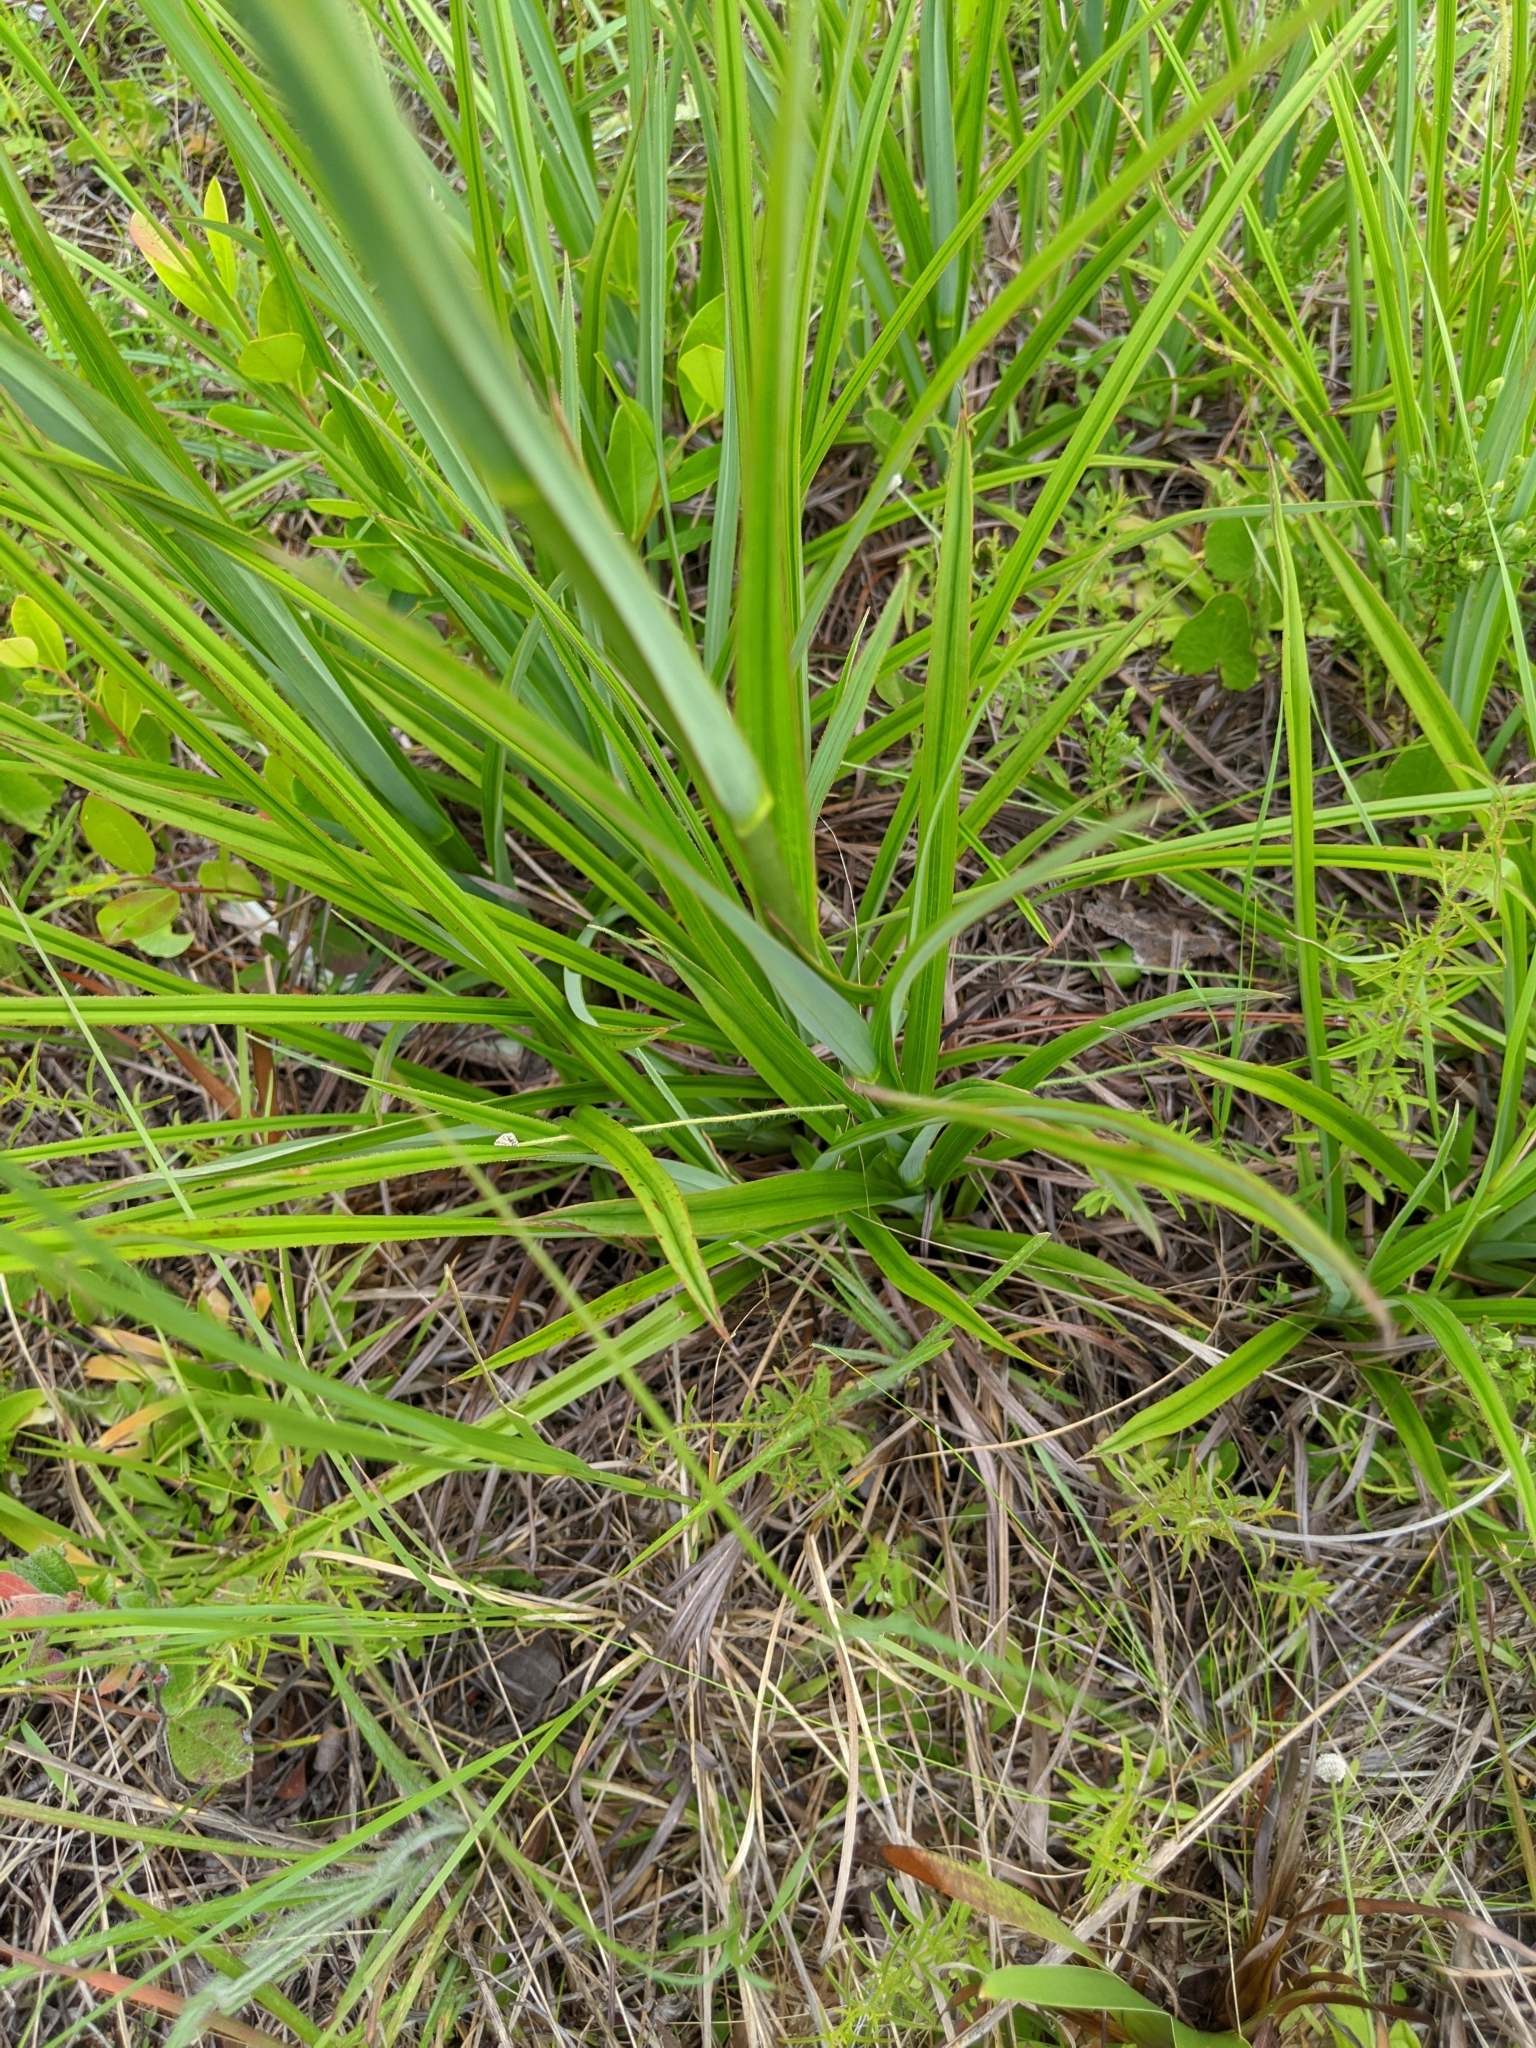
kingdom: Plantae
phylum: Tracheophyta
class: Liliopsida
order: Liliales
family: Melanthiaceae
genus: Zigadenus
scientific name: Zigadenus glaberrimus
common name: Sandbog death camas
